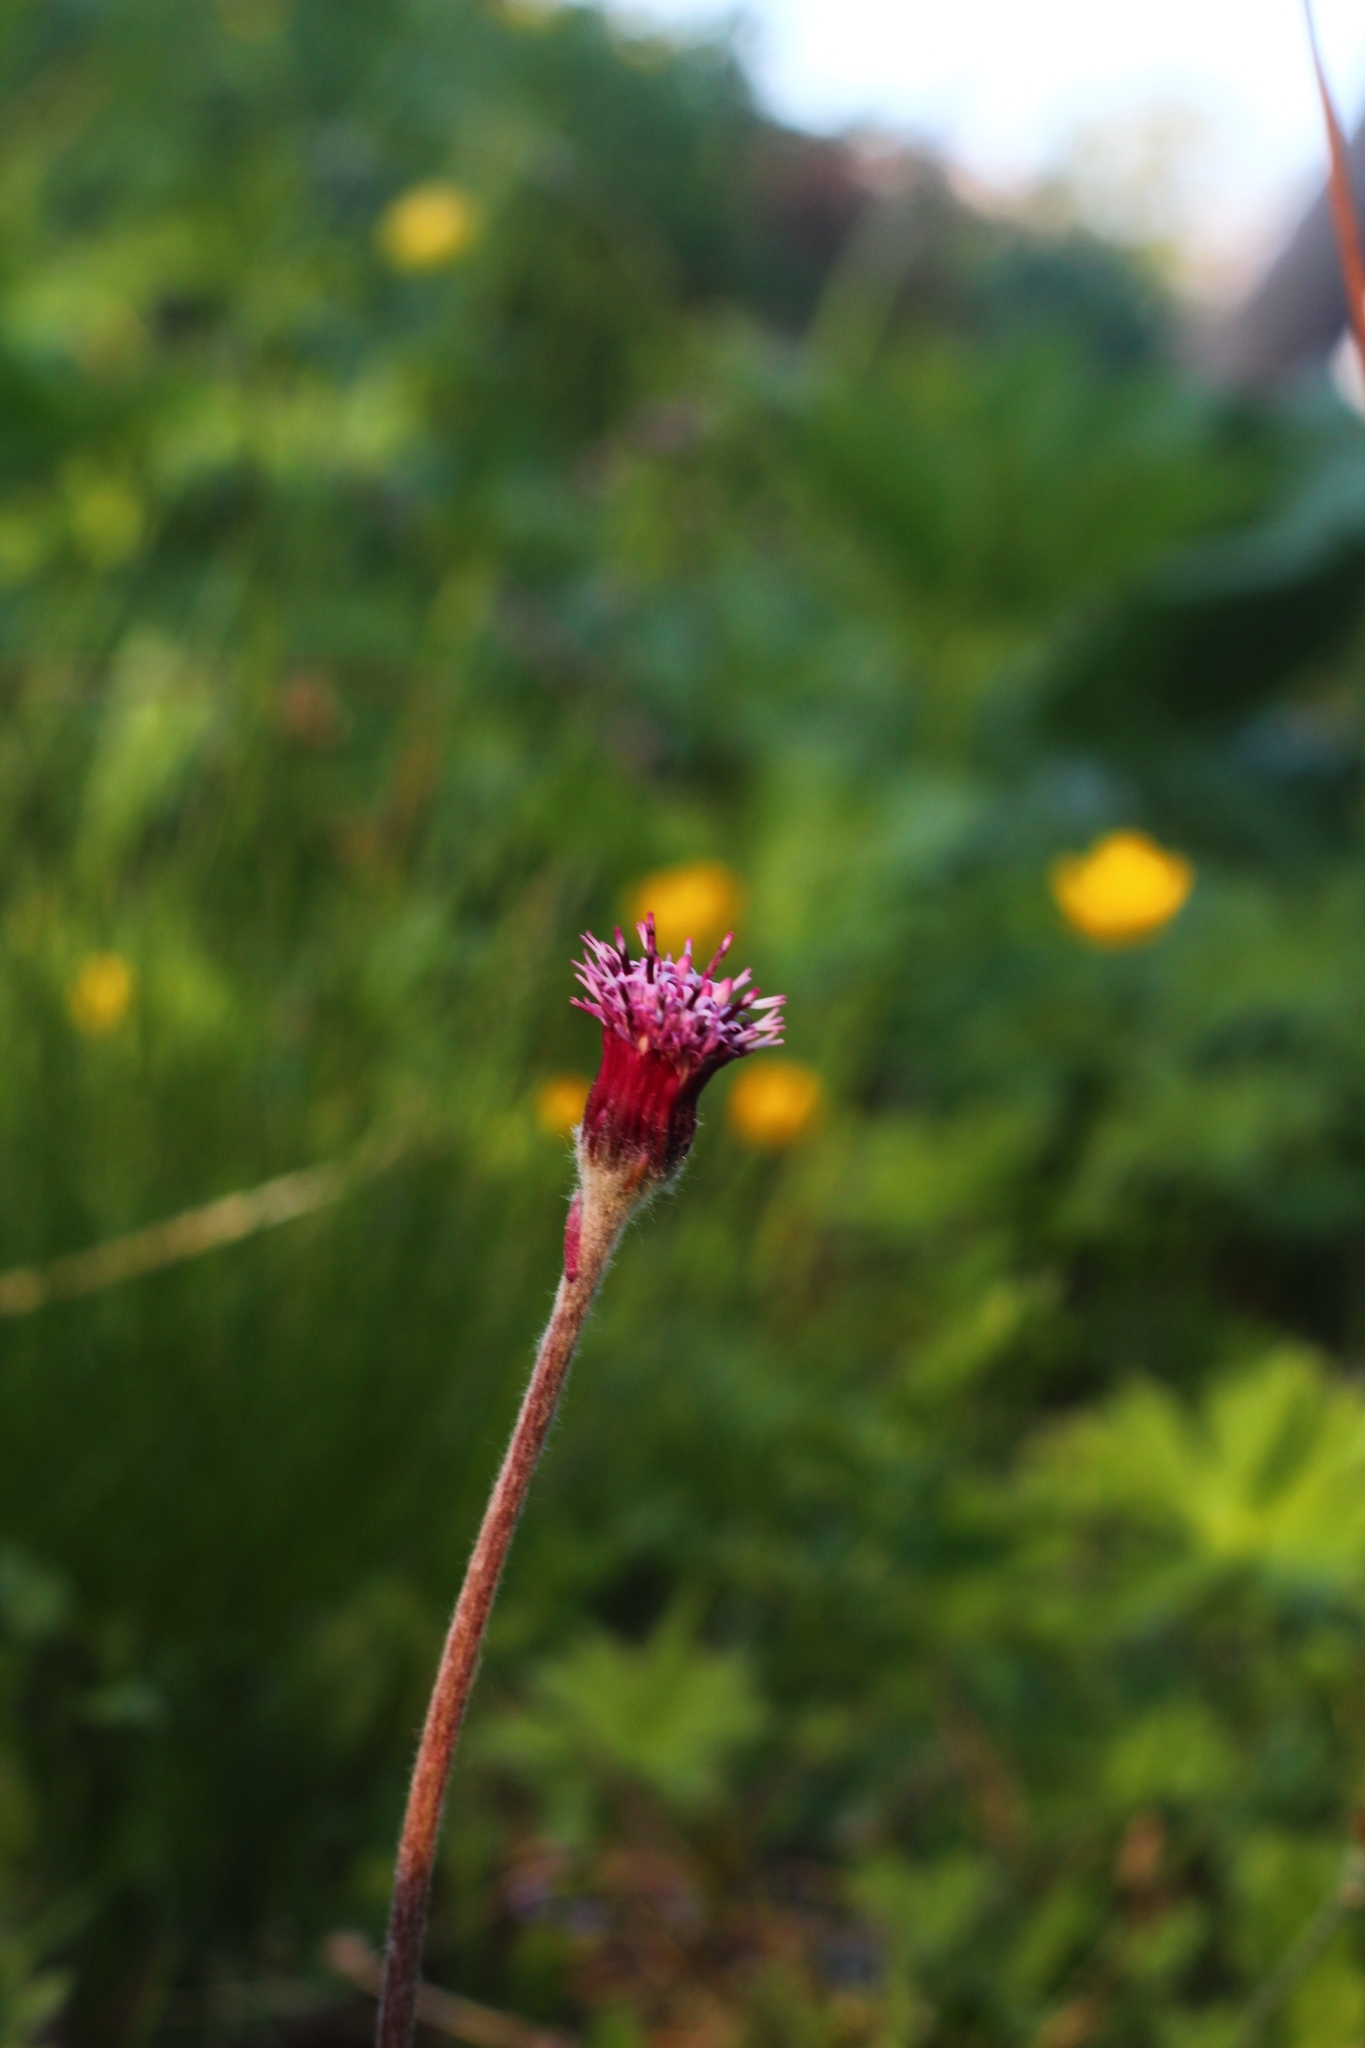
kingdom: Plantae
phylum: Tracheophyta
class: Magnoliopsida
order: Asterales
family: Asteraceae
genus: Homogyne
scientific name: Homogyne alpina
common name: Purple colt's-foot
